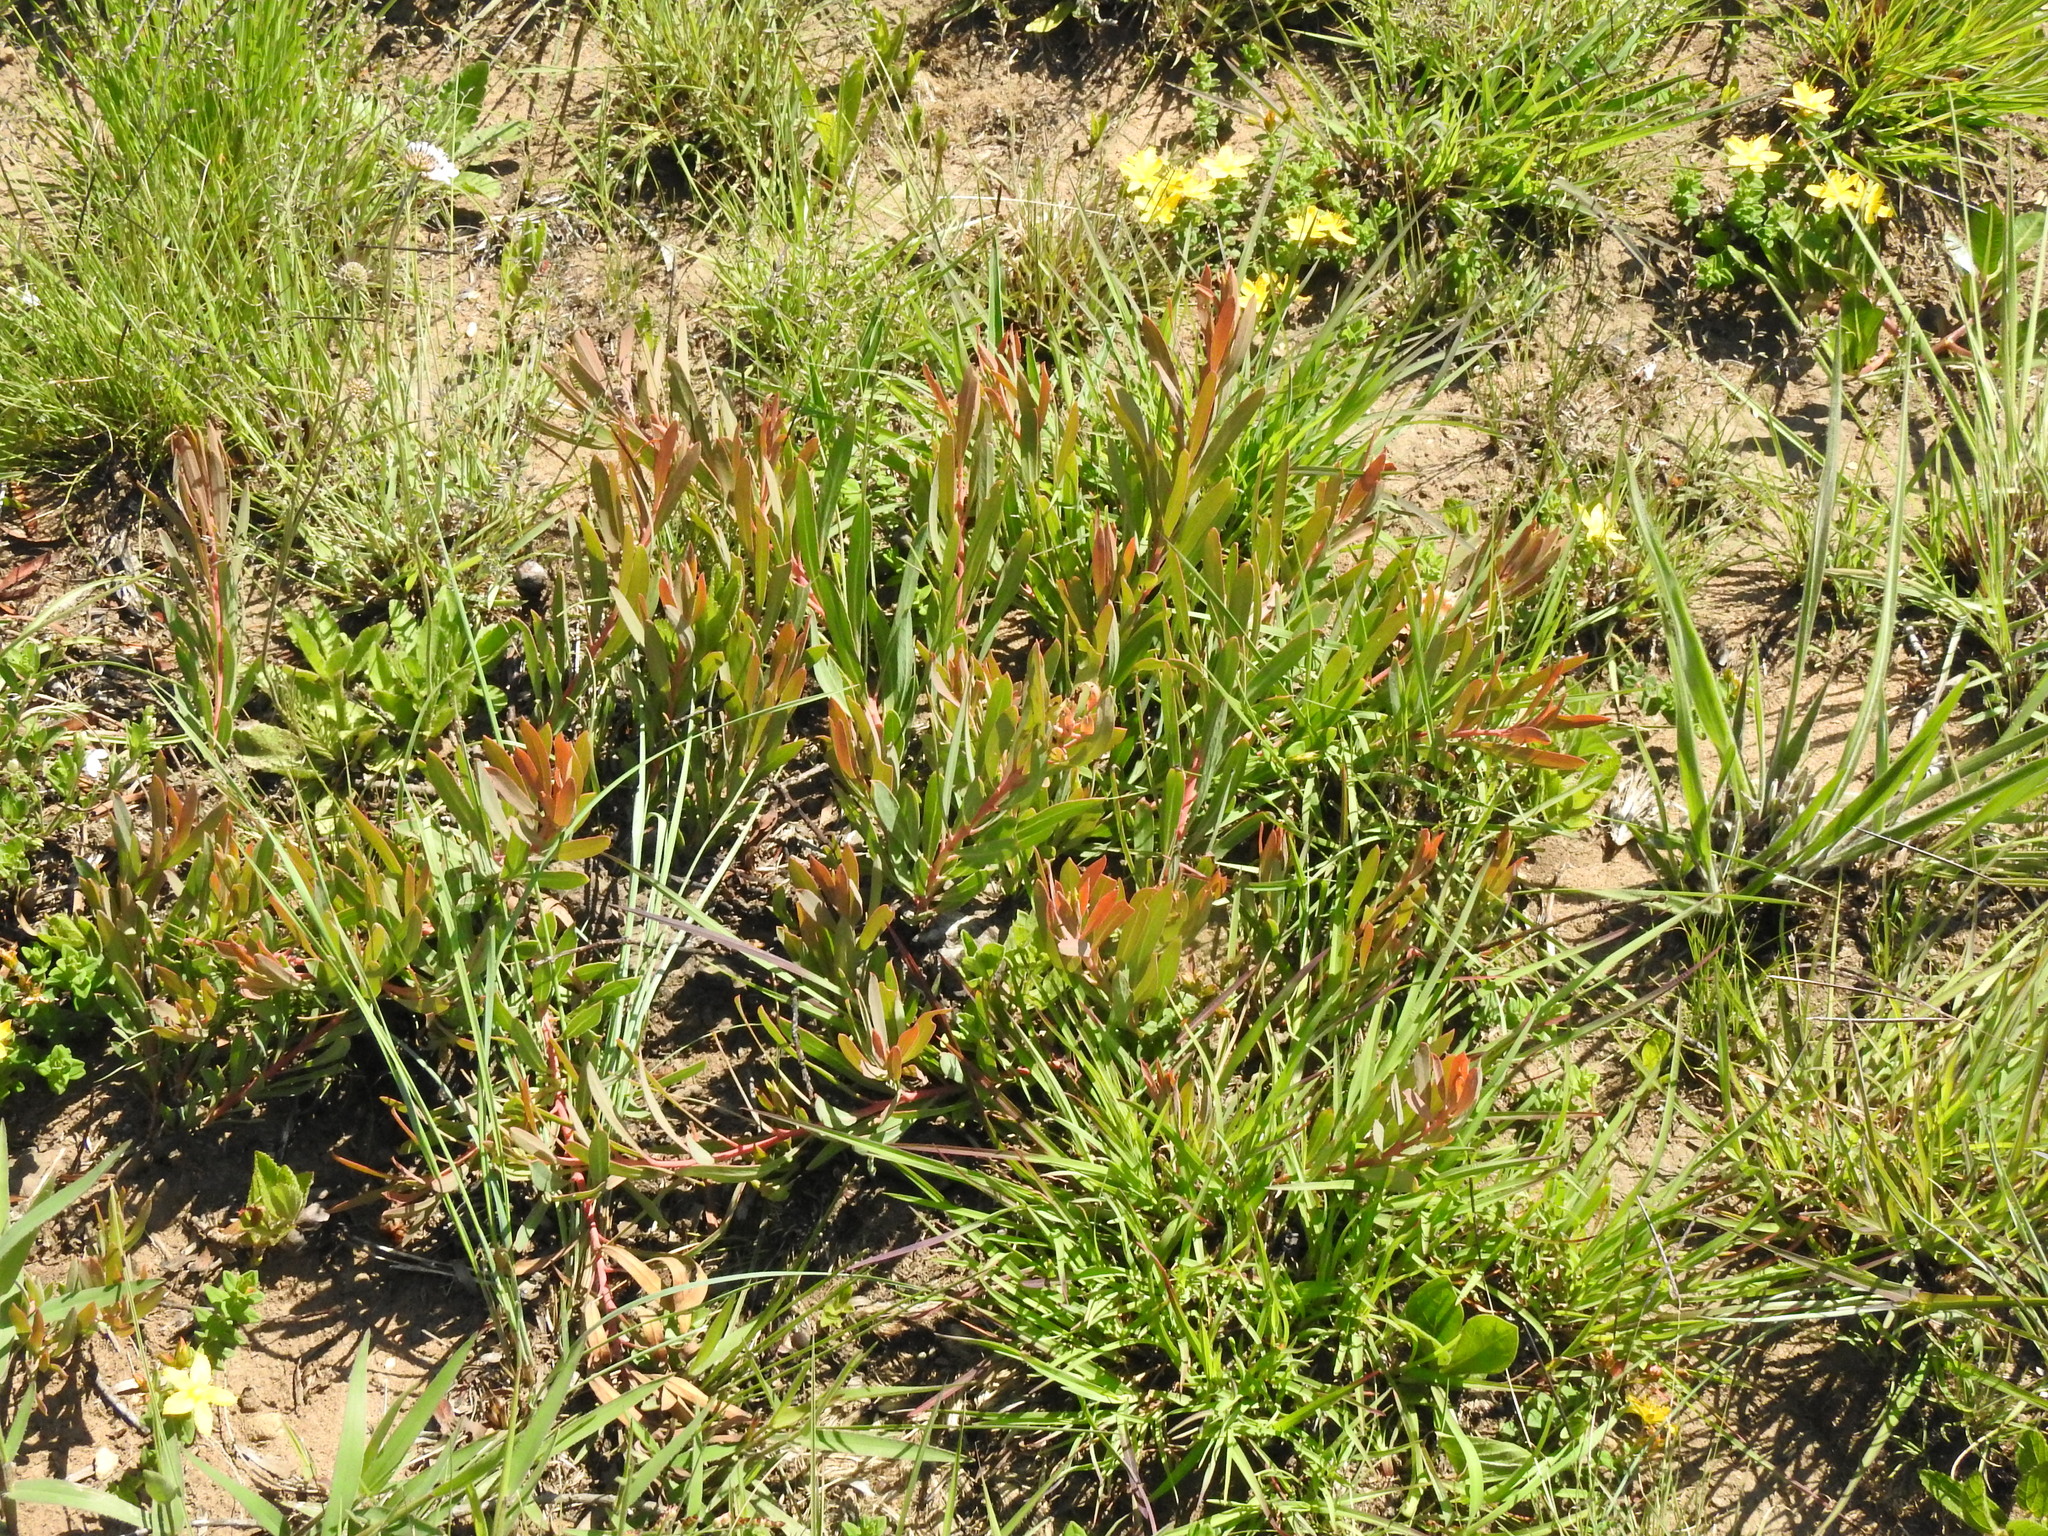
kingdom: Plantae
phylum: Tracheophyta
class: Magnoliopsida
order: Proteales
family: Proteaceae
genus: Protea
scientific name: Protea simplex
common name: Dwarf grassveld sugarbush
